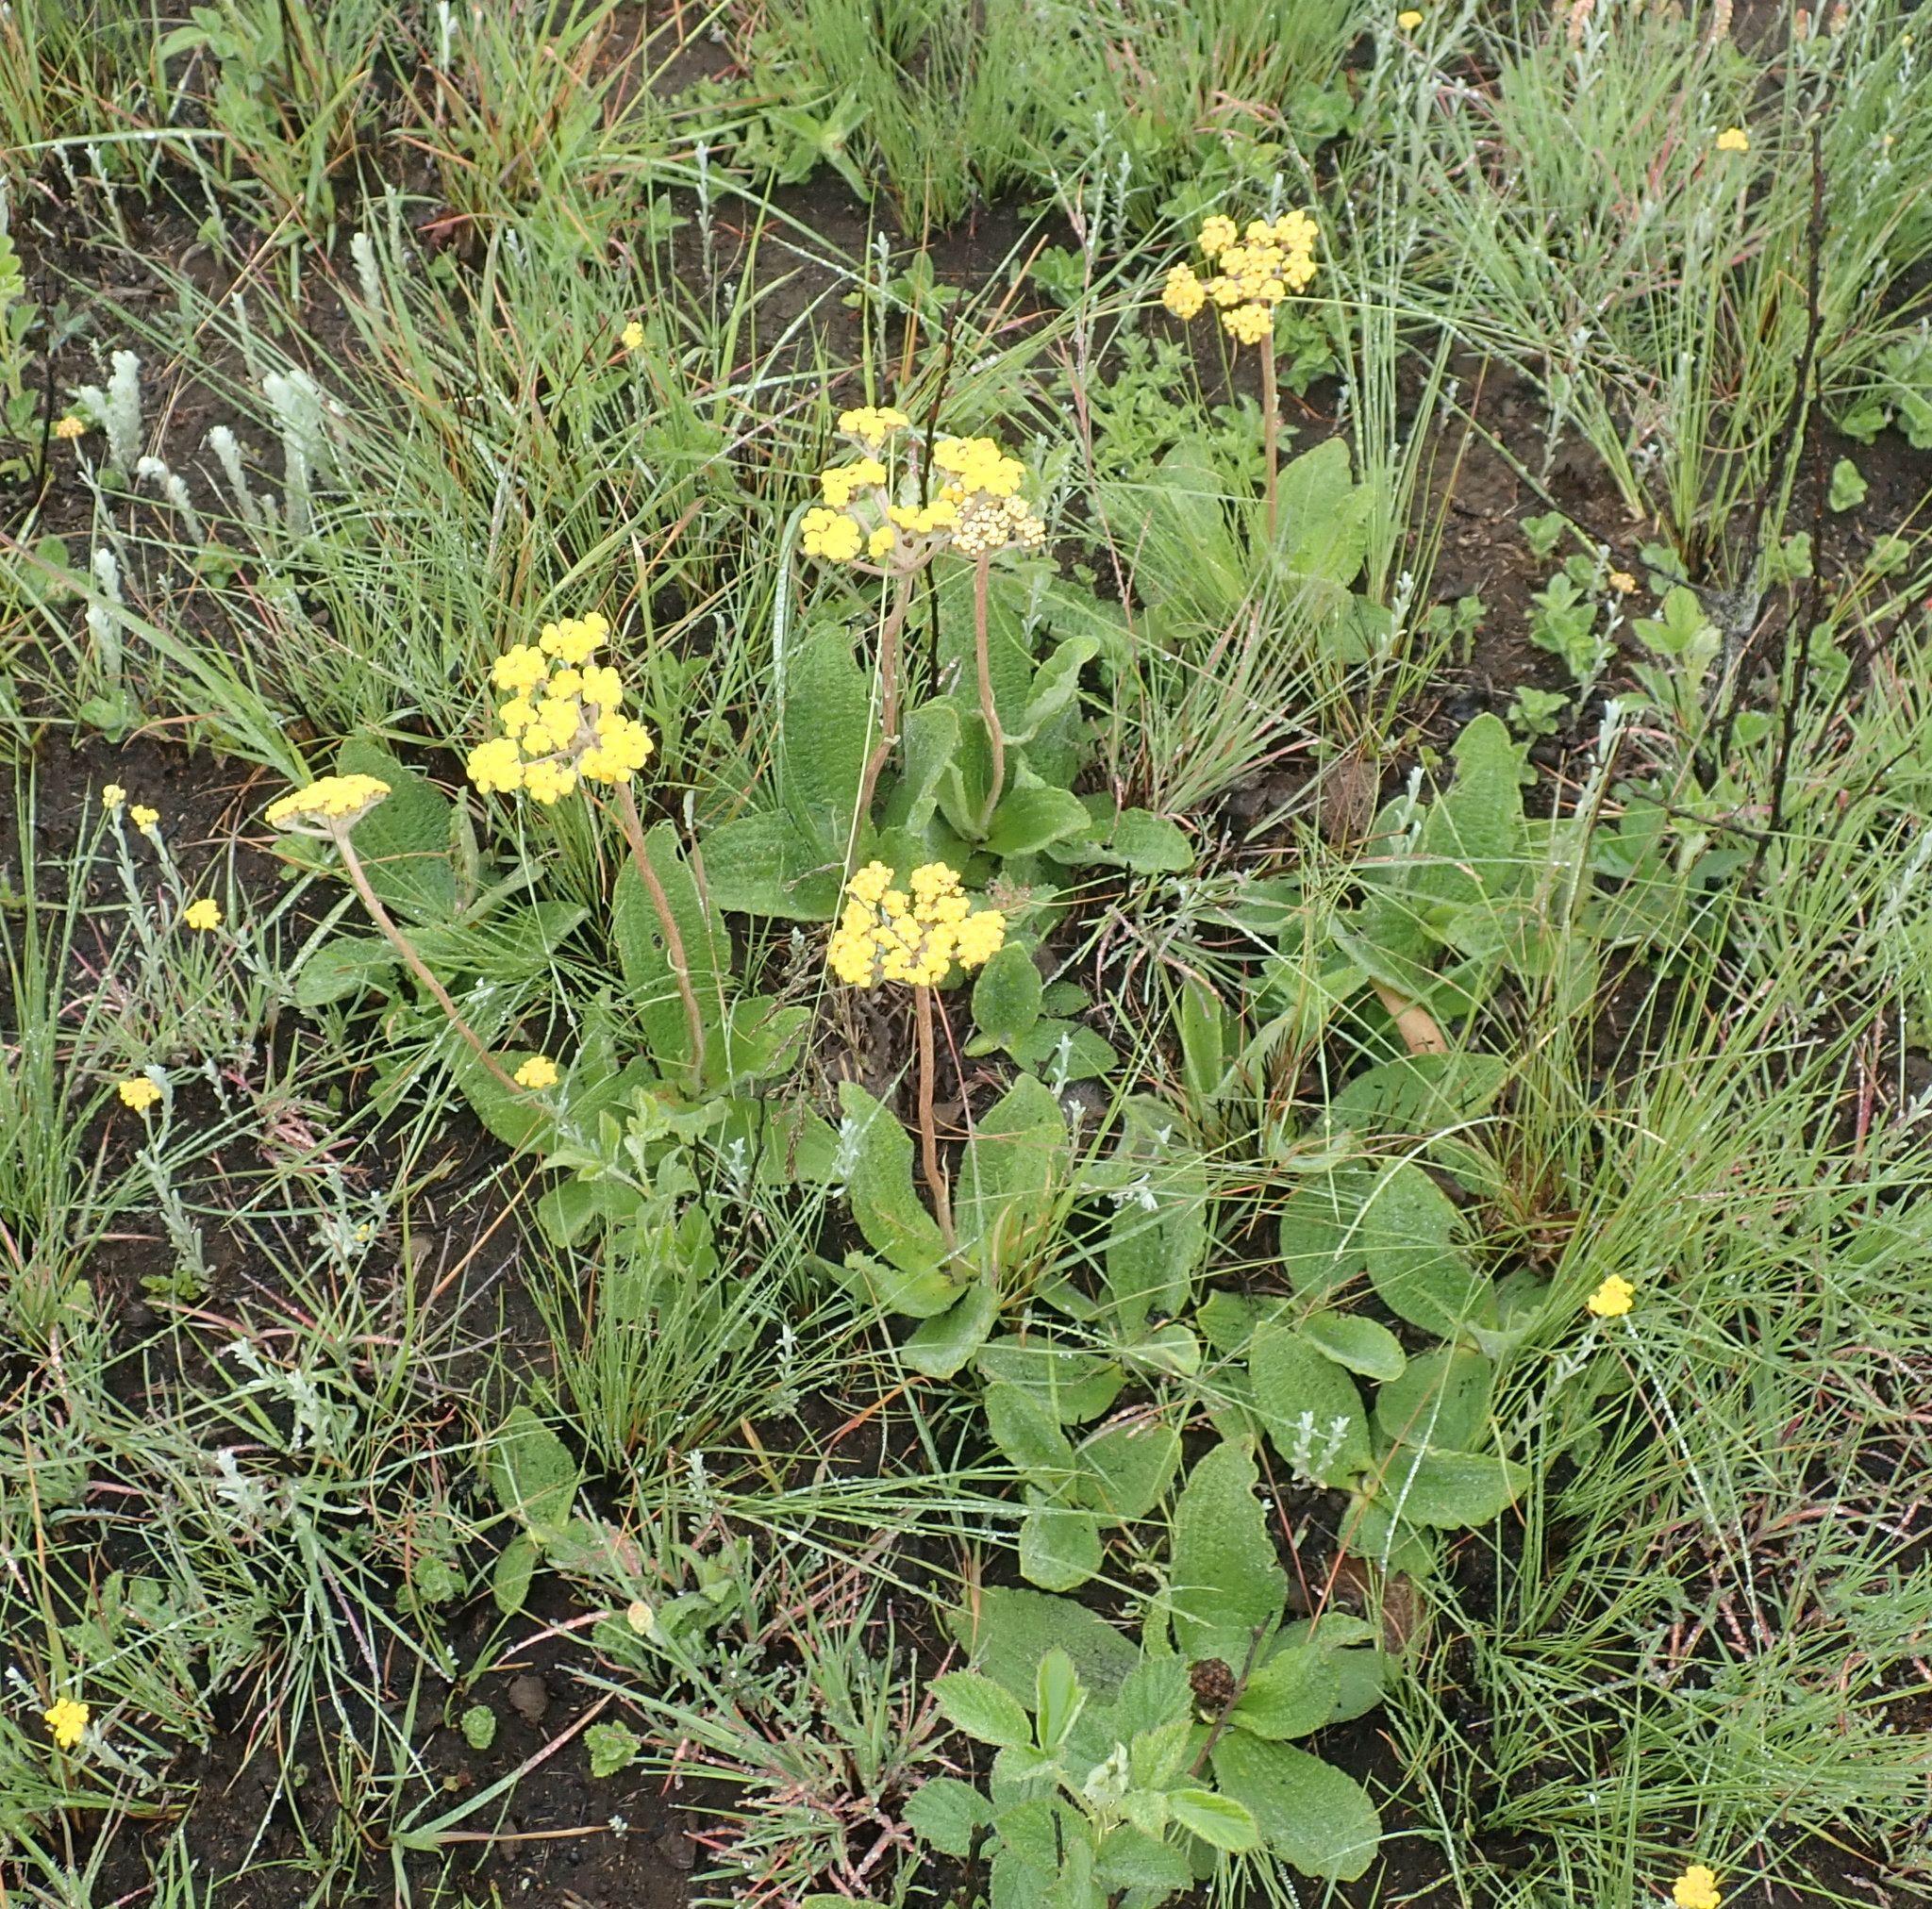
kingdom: Plantae
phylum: Tracheophyta
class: Magnoliopsida
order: Asterales
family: Asteraceae
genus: Helichrysum
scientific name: Helichrysum nudifolium
